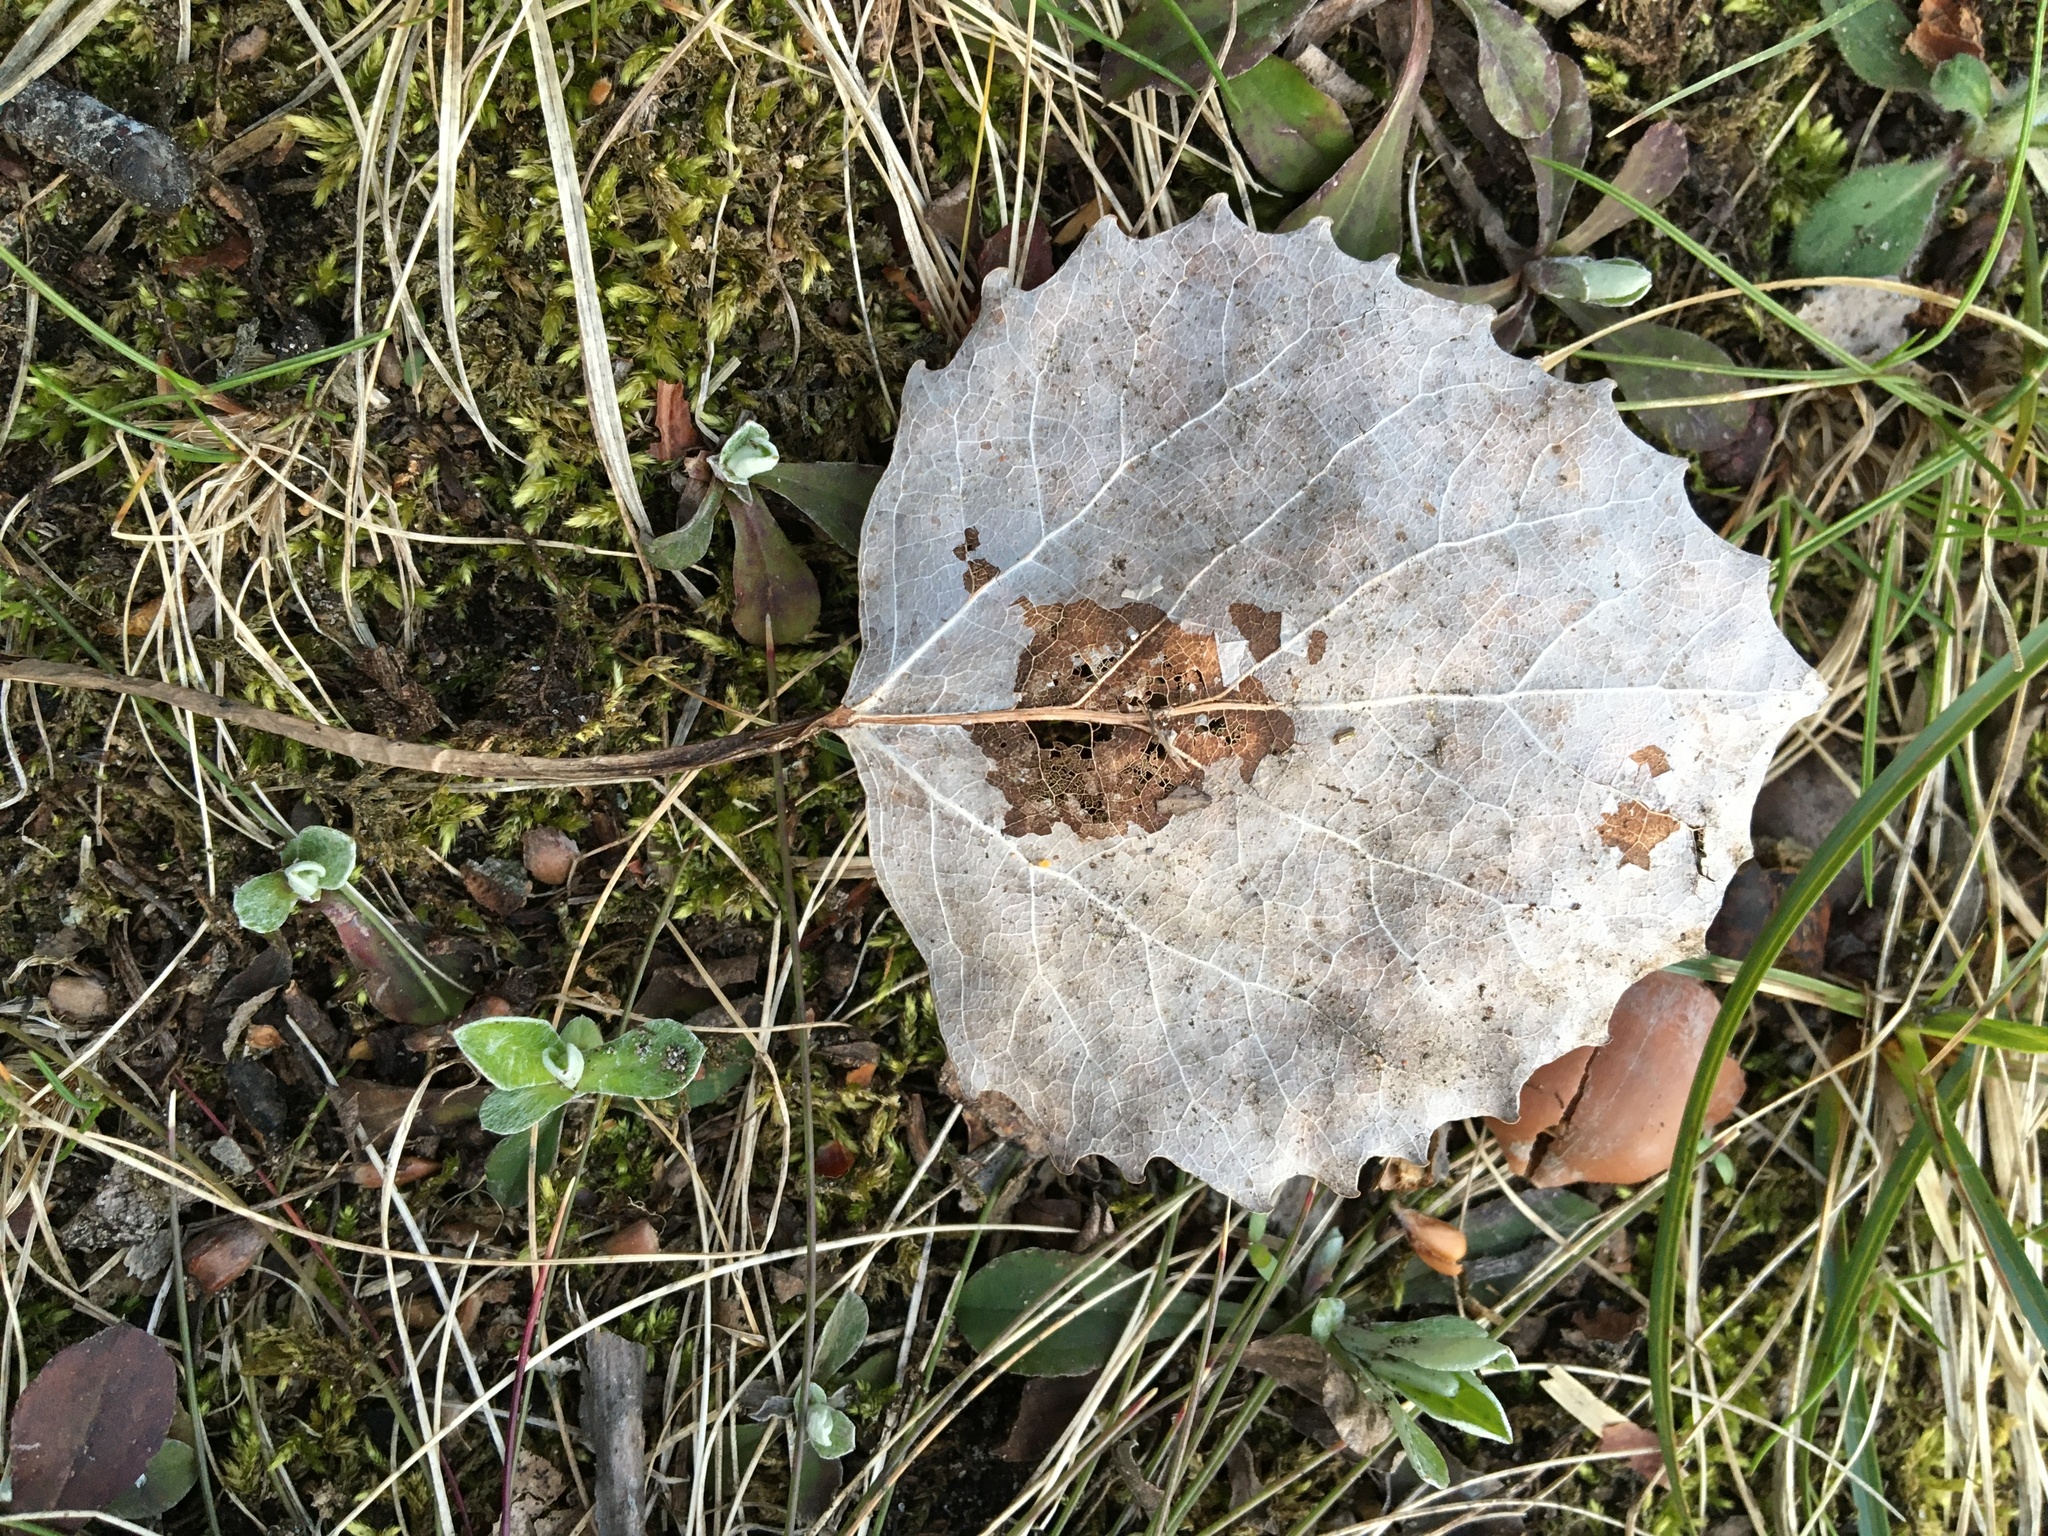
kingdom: Plantae
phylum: Tracheophyta
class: Magnoliopsida
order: Malpighiales
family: Salicaceae
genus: Populus
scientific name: Populus grandidentata
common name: Bigtooth aspen
